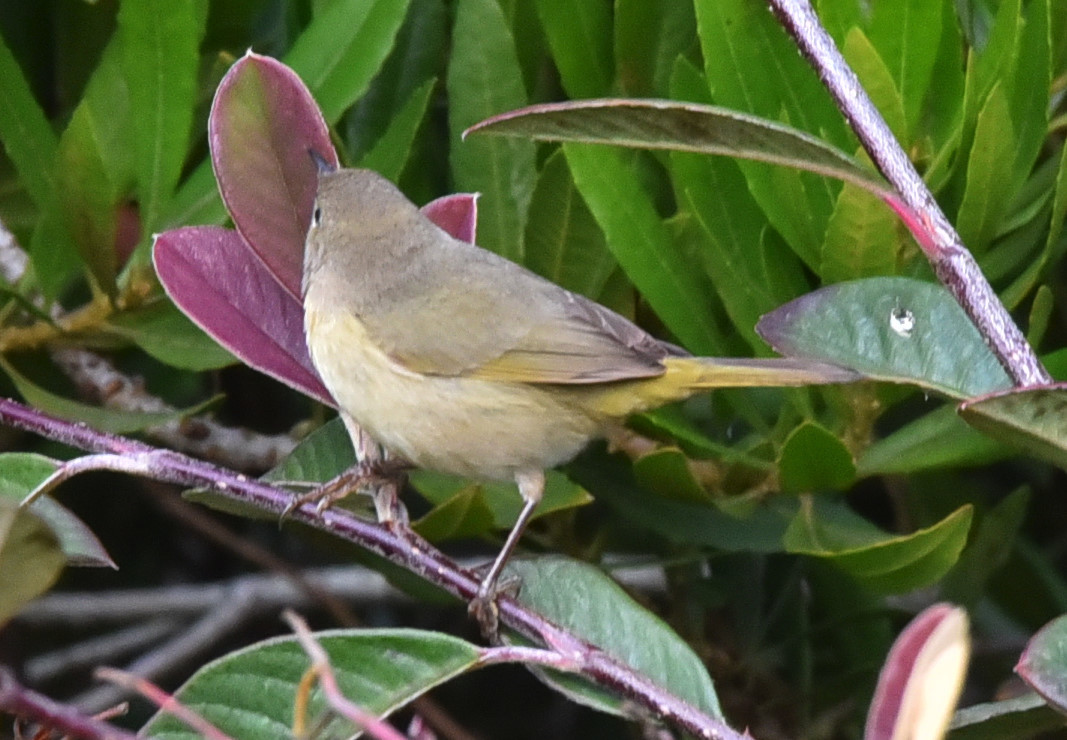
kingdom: Animalia
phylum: Chordata
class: Aves
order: Passeriformes
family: Parulidae
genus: Geothlypis
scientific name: Geothlypis trichas
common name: Common yellowthroat
